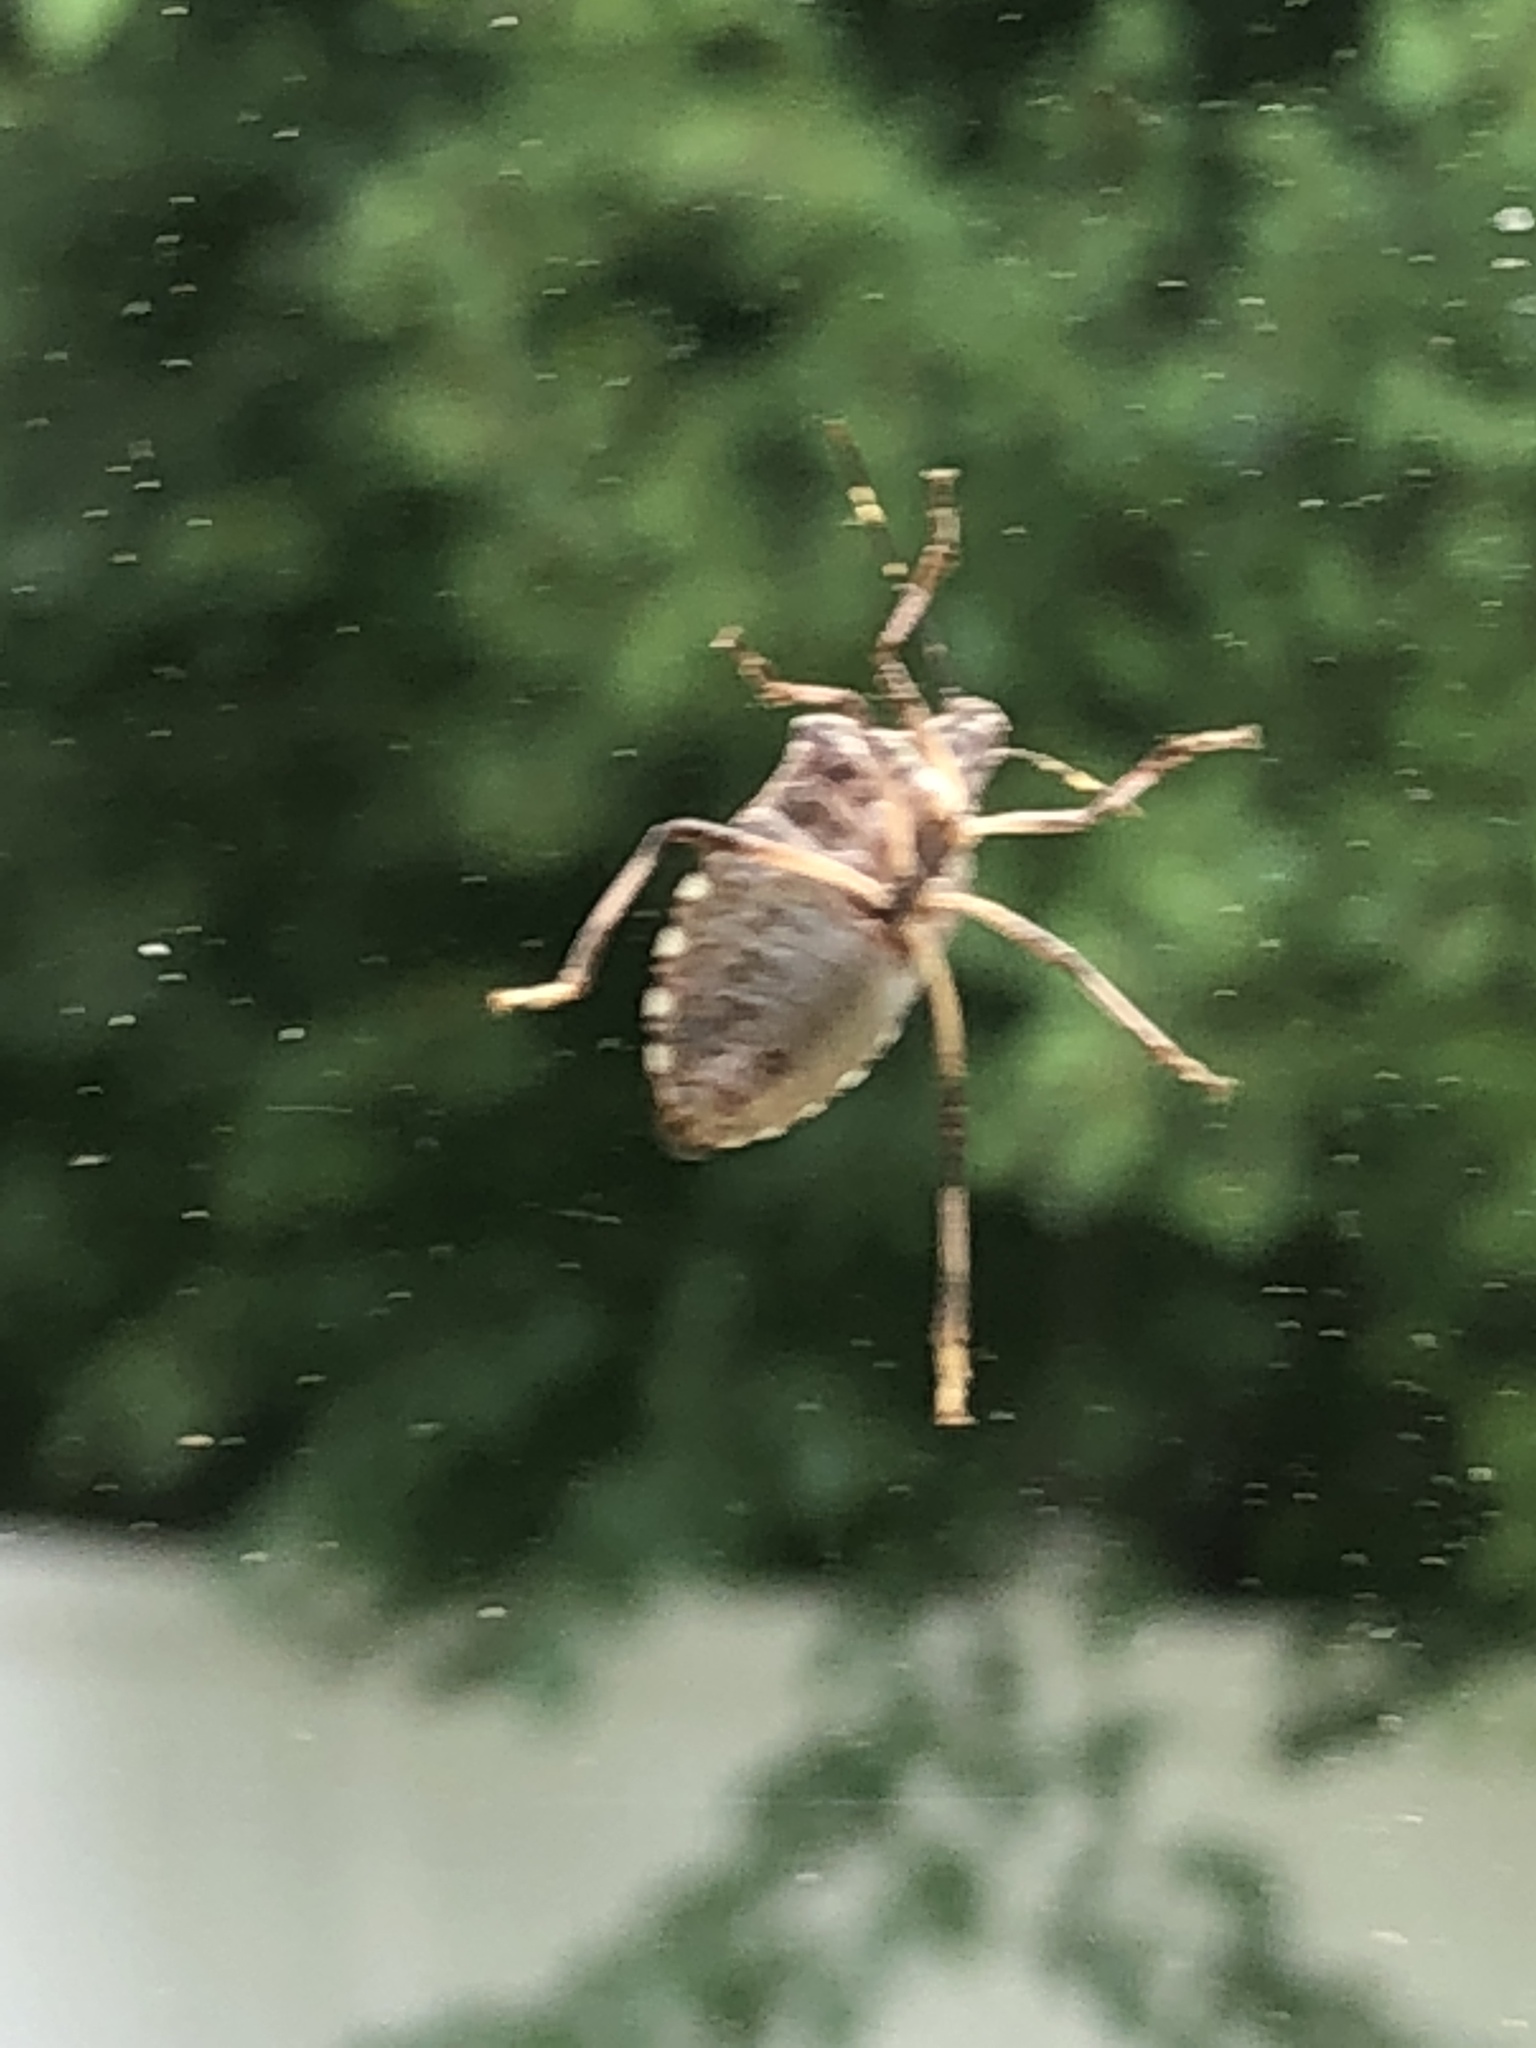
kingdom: Animalia
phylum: Arthropoda
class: Insecta
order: Hemiptera
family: Pentatomidae
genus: Halyomorpha
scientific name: Halyomorpha halys
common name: Brown marmorated stink bug
